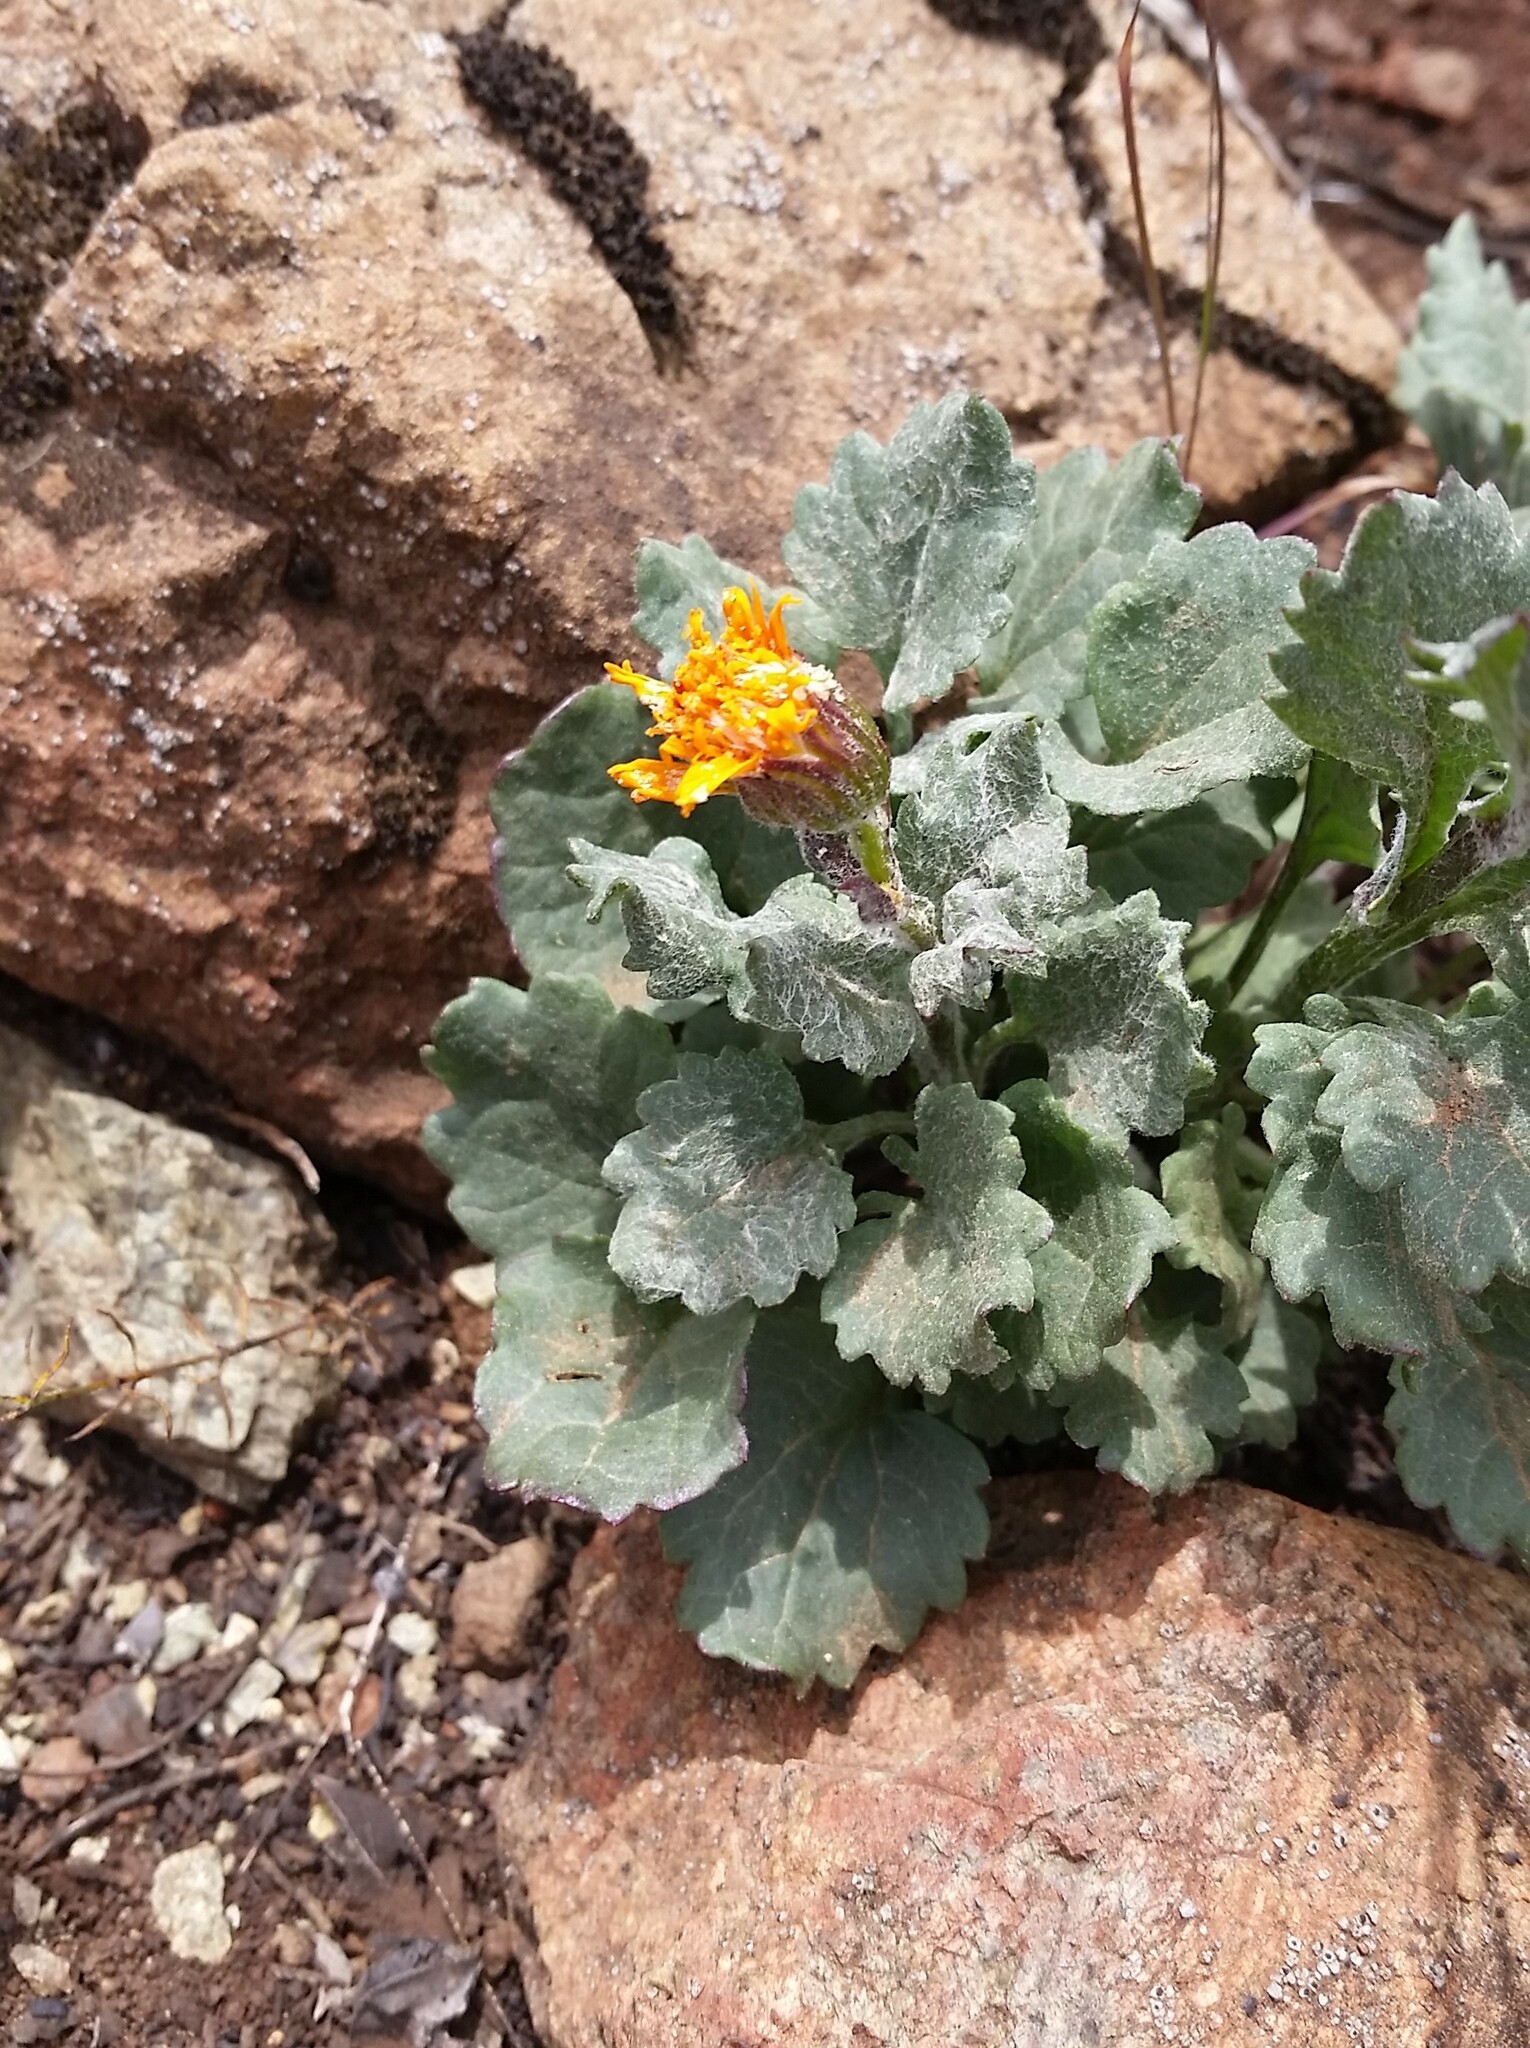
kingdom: Plantae
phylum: Tracheophyta
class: Magnoliopsida
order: Asterales
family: Asteraceae
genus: Packera
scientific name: Packera greenei
